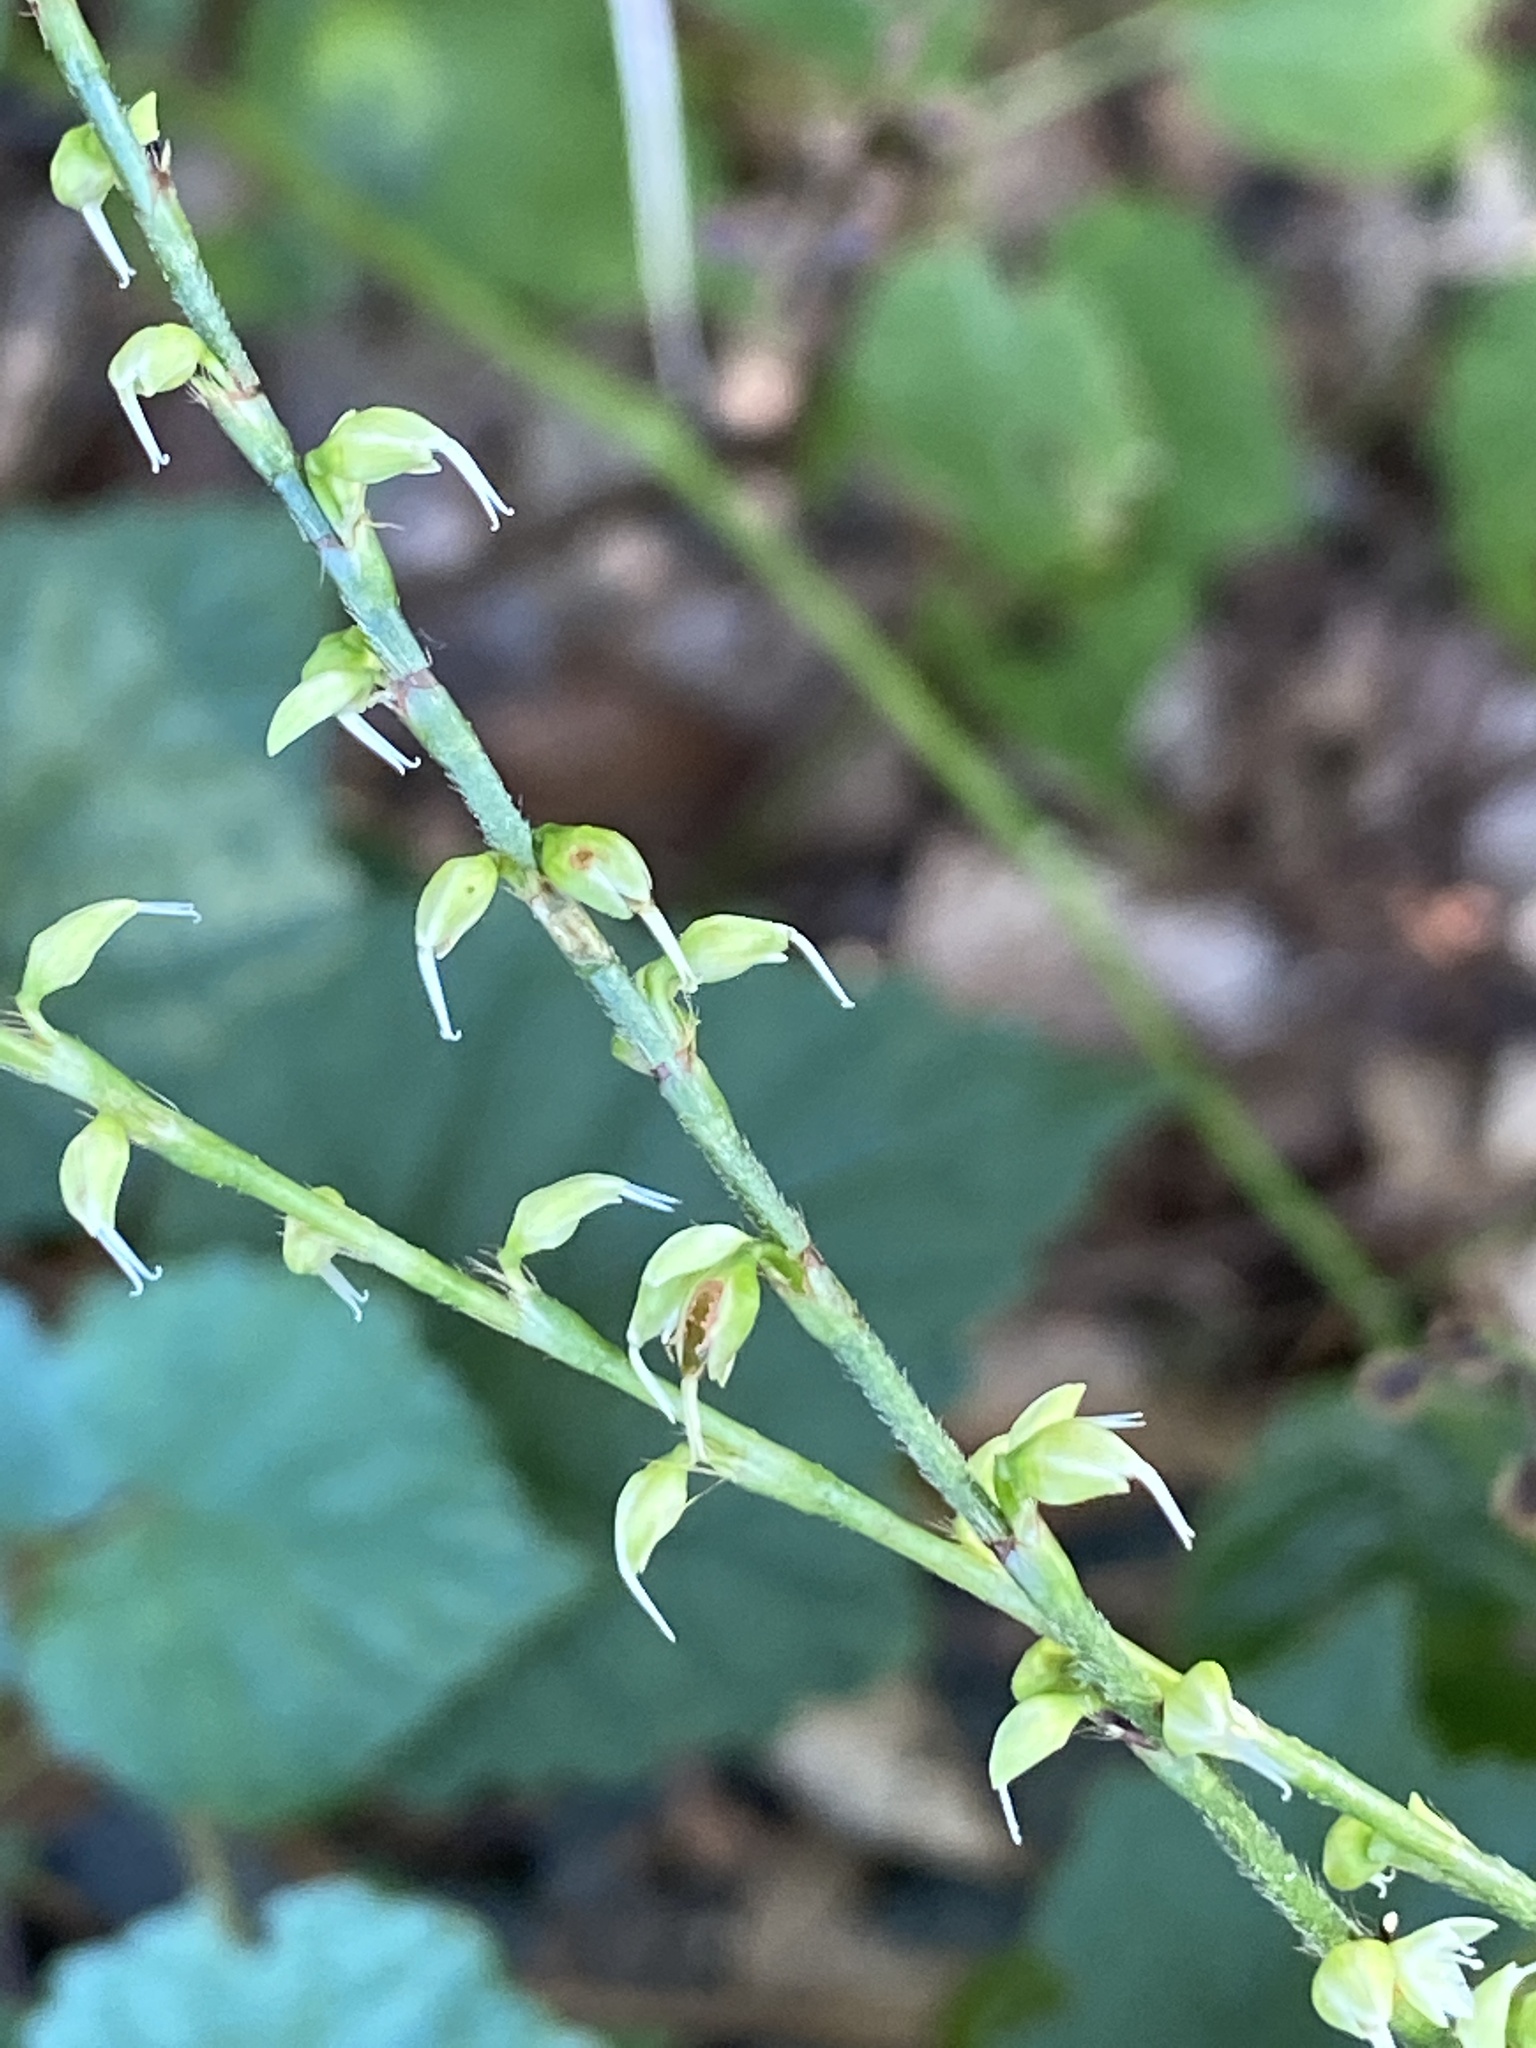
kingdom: Plantae
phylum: Tracheophyta
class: Magnoliopsida
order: Caryophyllales
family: Polygonaceae
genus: Persicaria
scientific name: Persicaria virginiana
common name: Jumpseed
